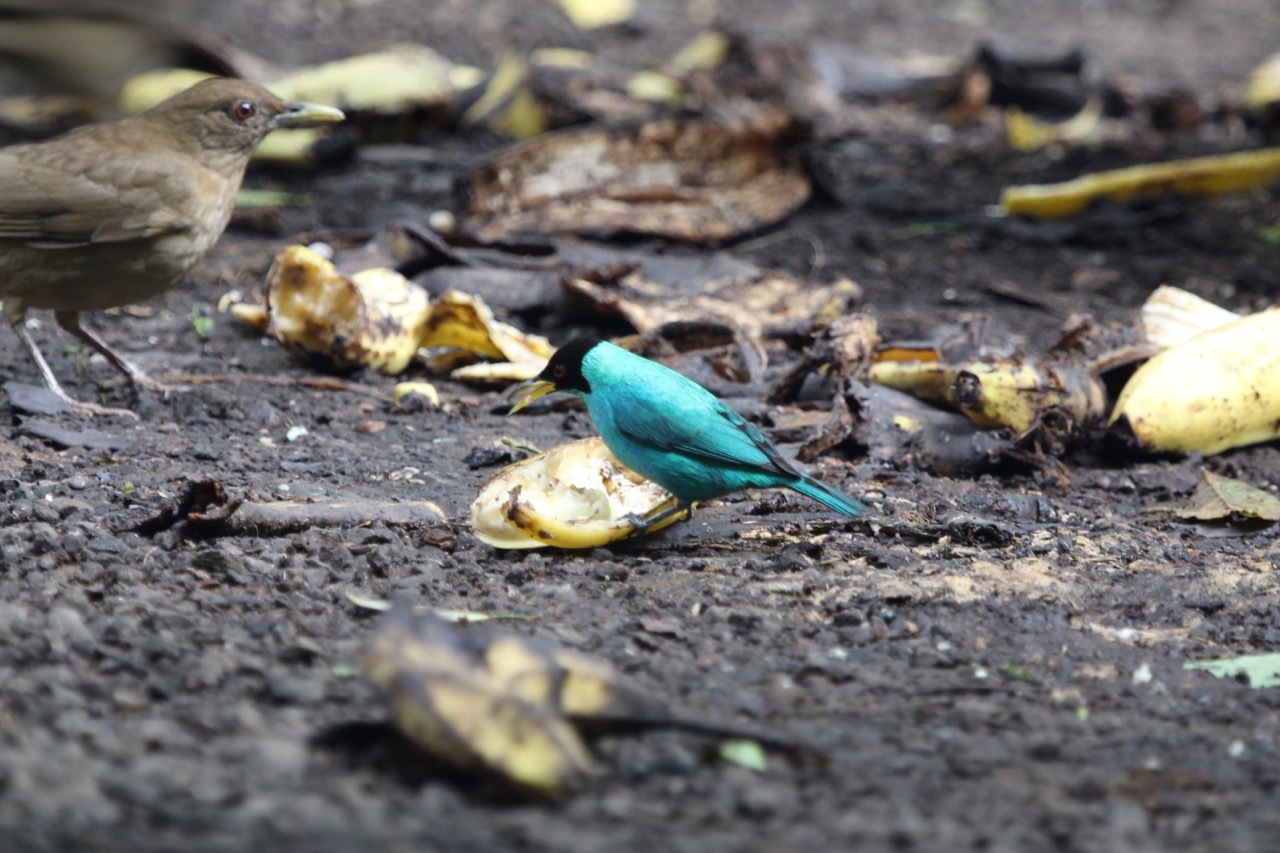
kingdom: Animalia
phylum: Chordata
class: Aves
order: Passeriformes
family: Thraupidae
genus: Chlorophanes
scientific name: Chlorophanes spiza
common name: Green honeycreeper
